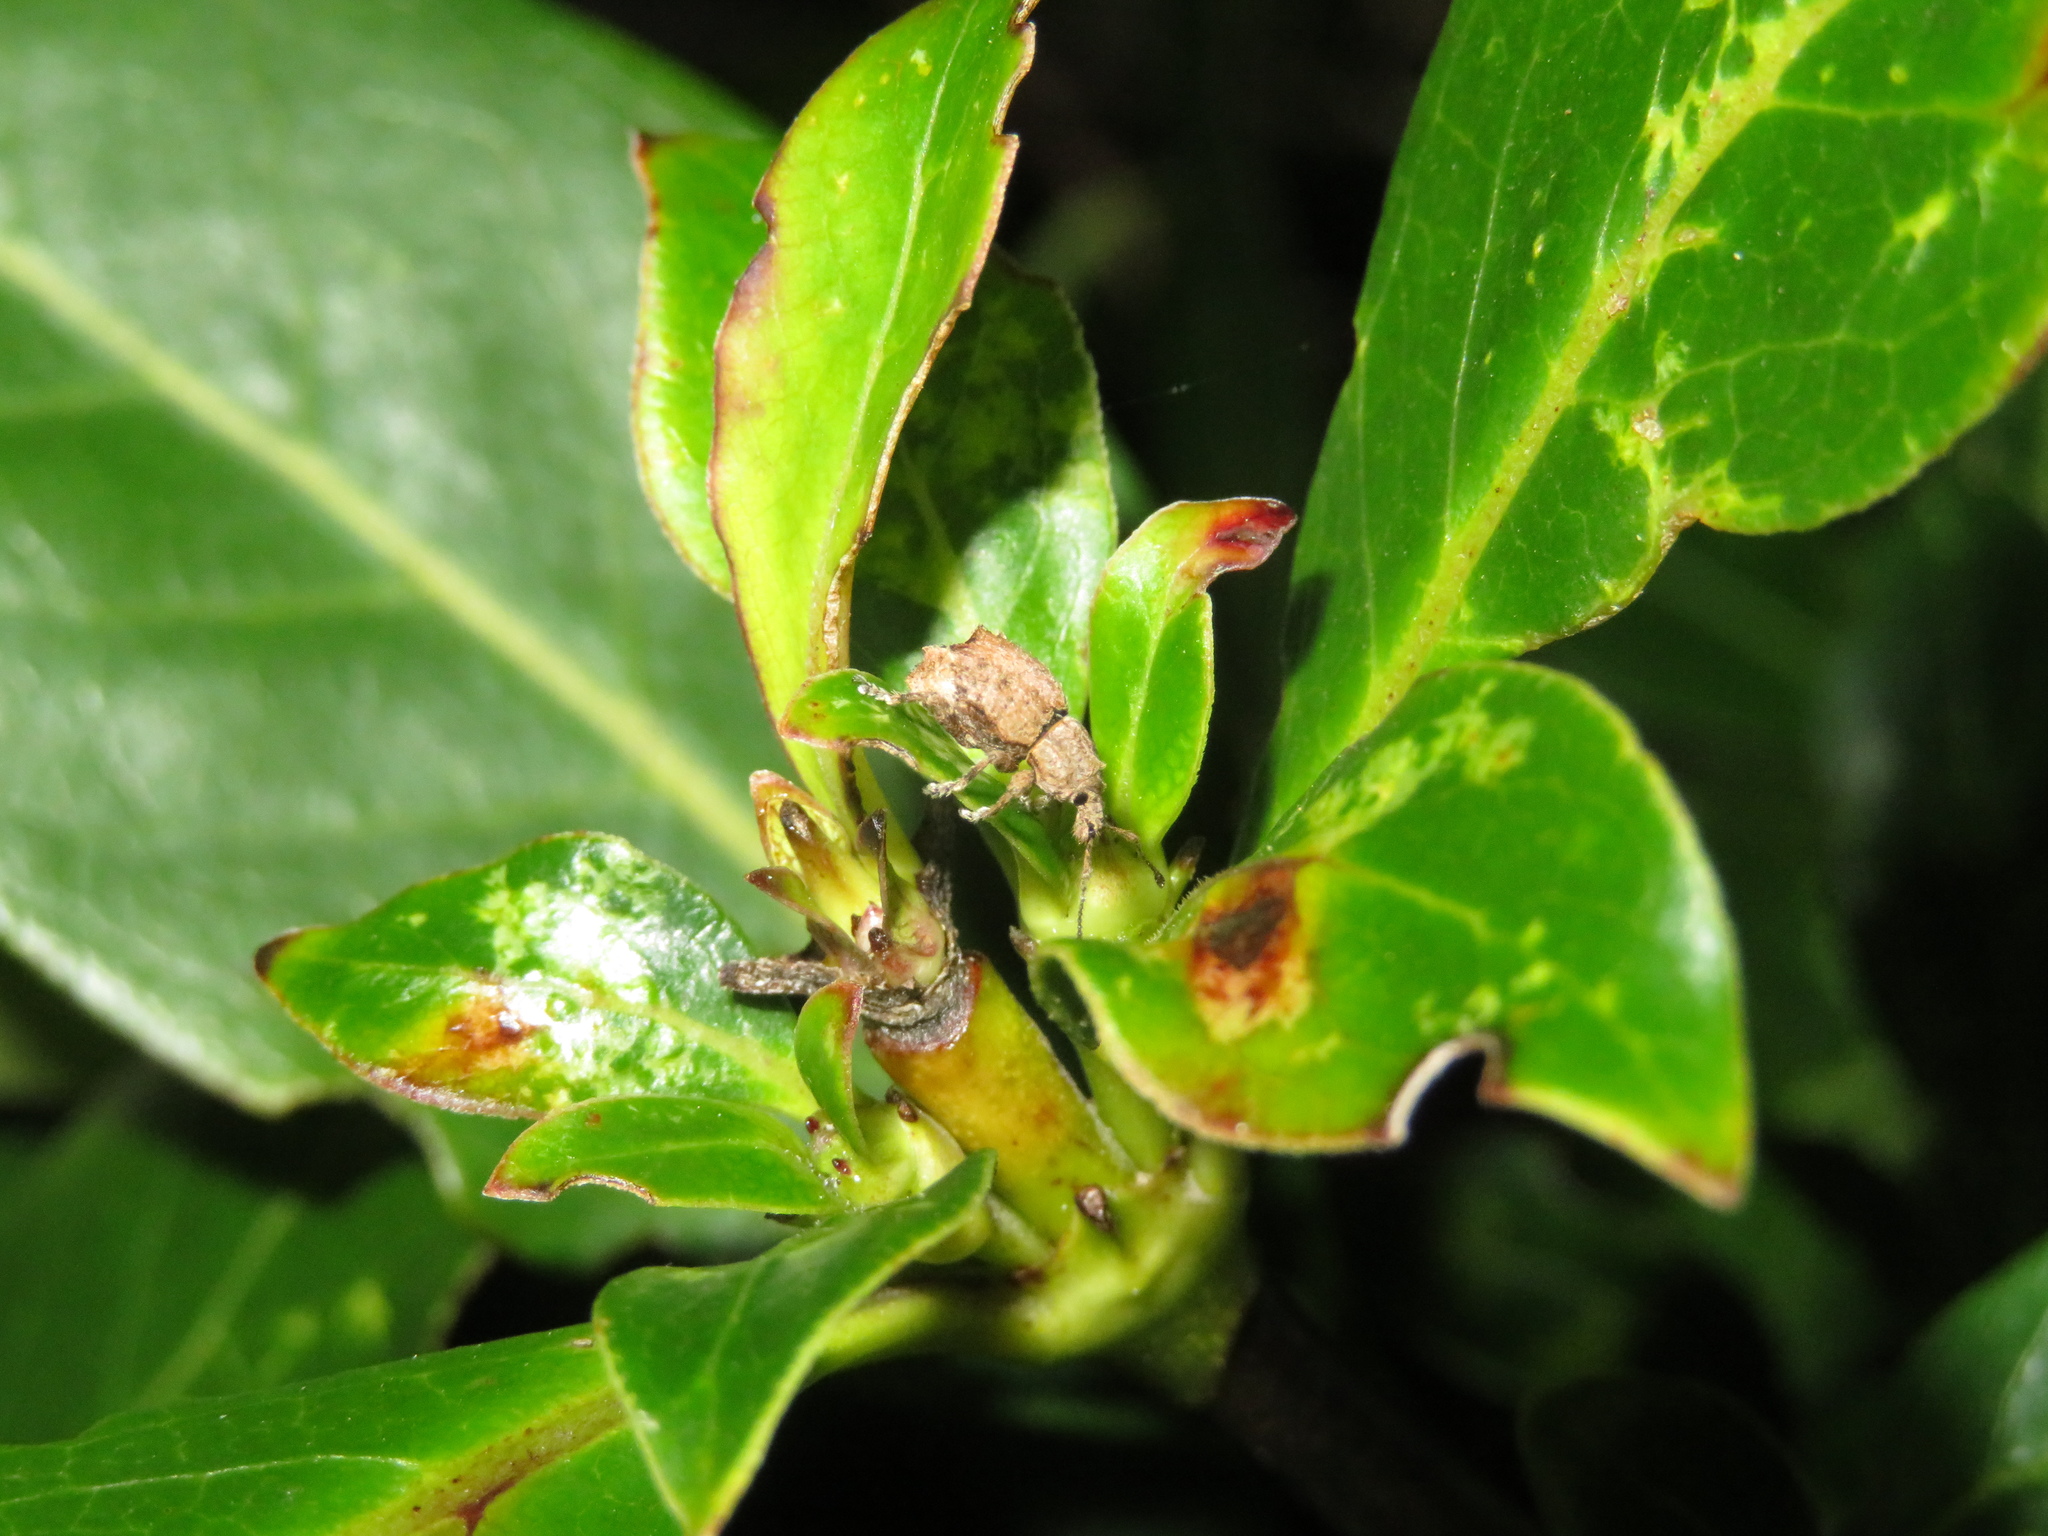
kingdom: Animalia
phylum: Arthropoda
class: Insecta
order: Coleoptera
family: Curculionidae
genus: Chalepistes
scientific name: Chalepistes costifer
